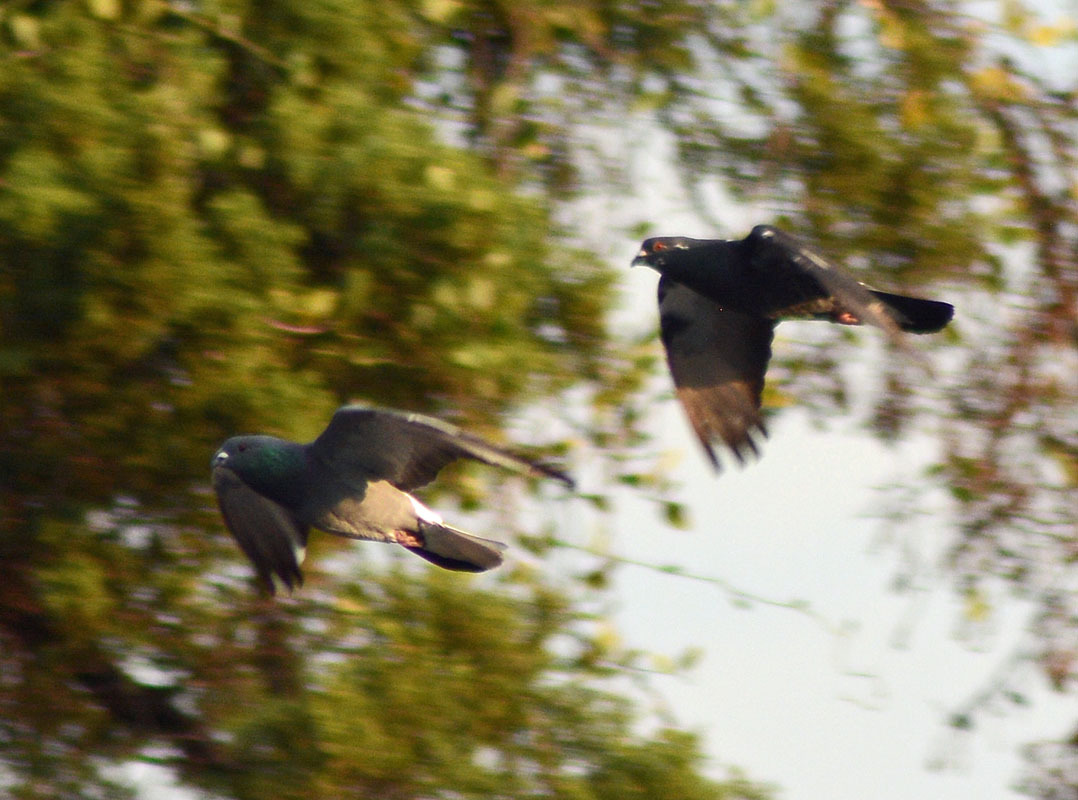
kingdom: Animalia
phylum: Chordata
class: Aves
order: Columbiformes
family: Columbidae
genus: Columba
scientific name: Columba livia
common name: Rock pigeon
